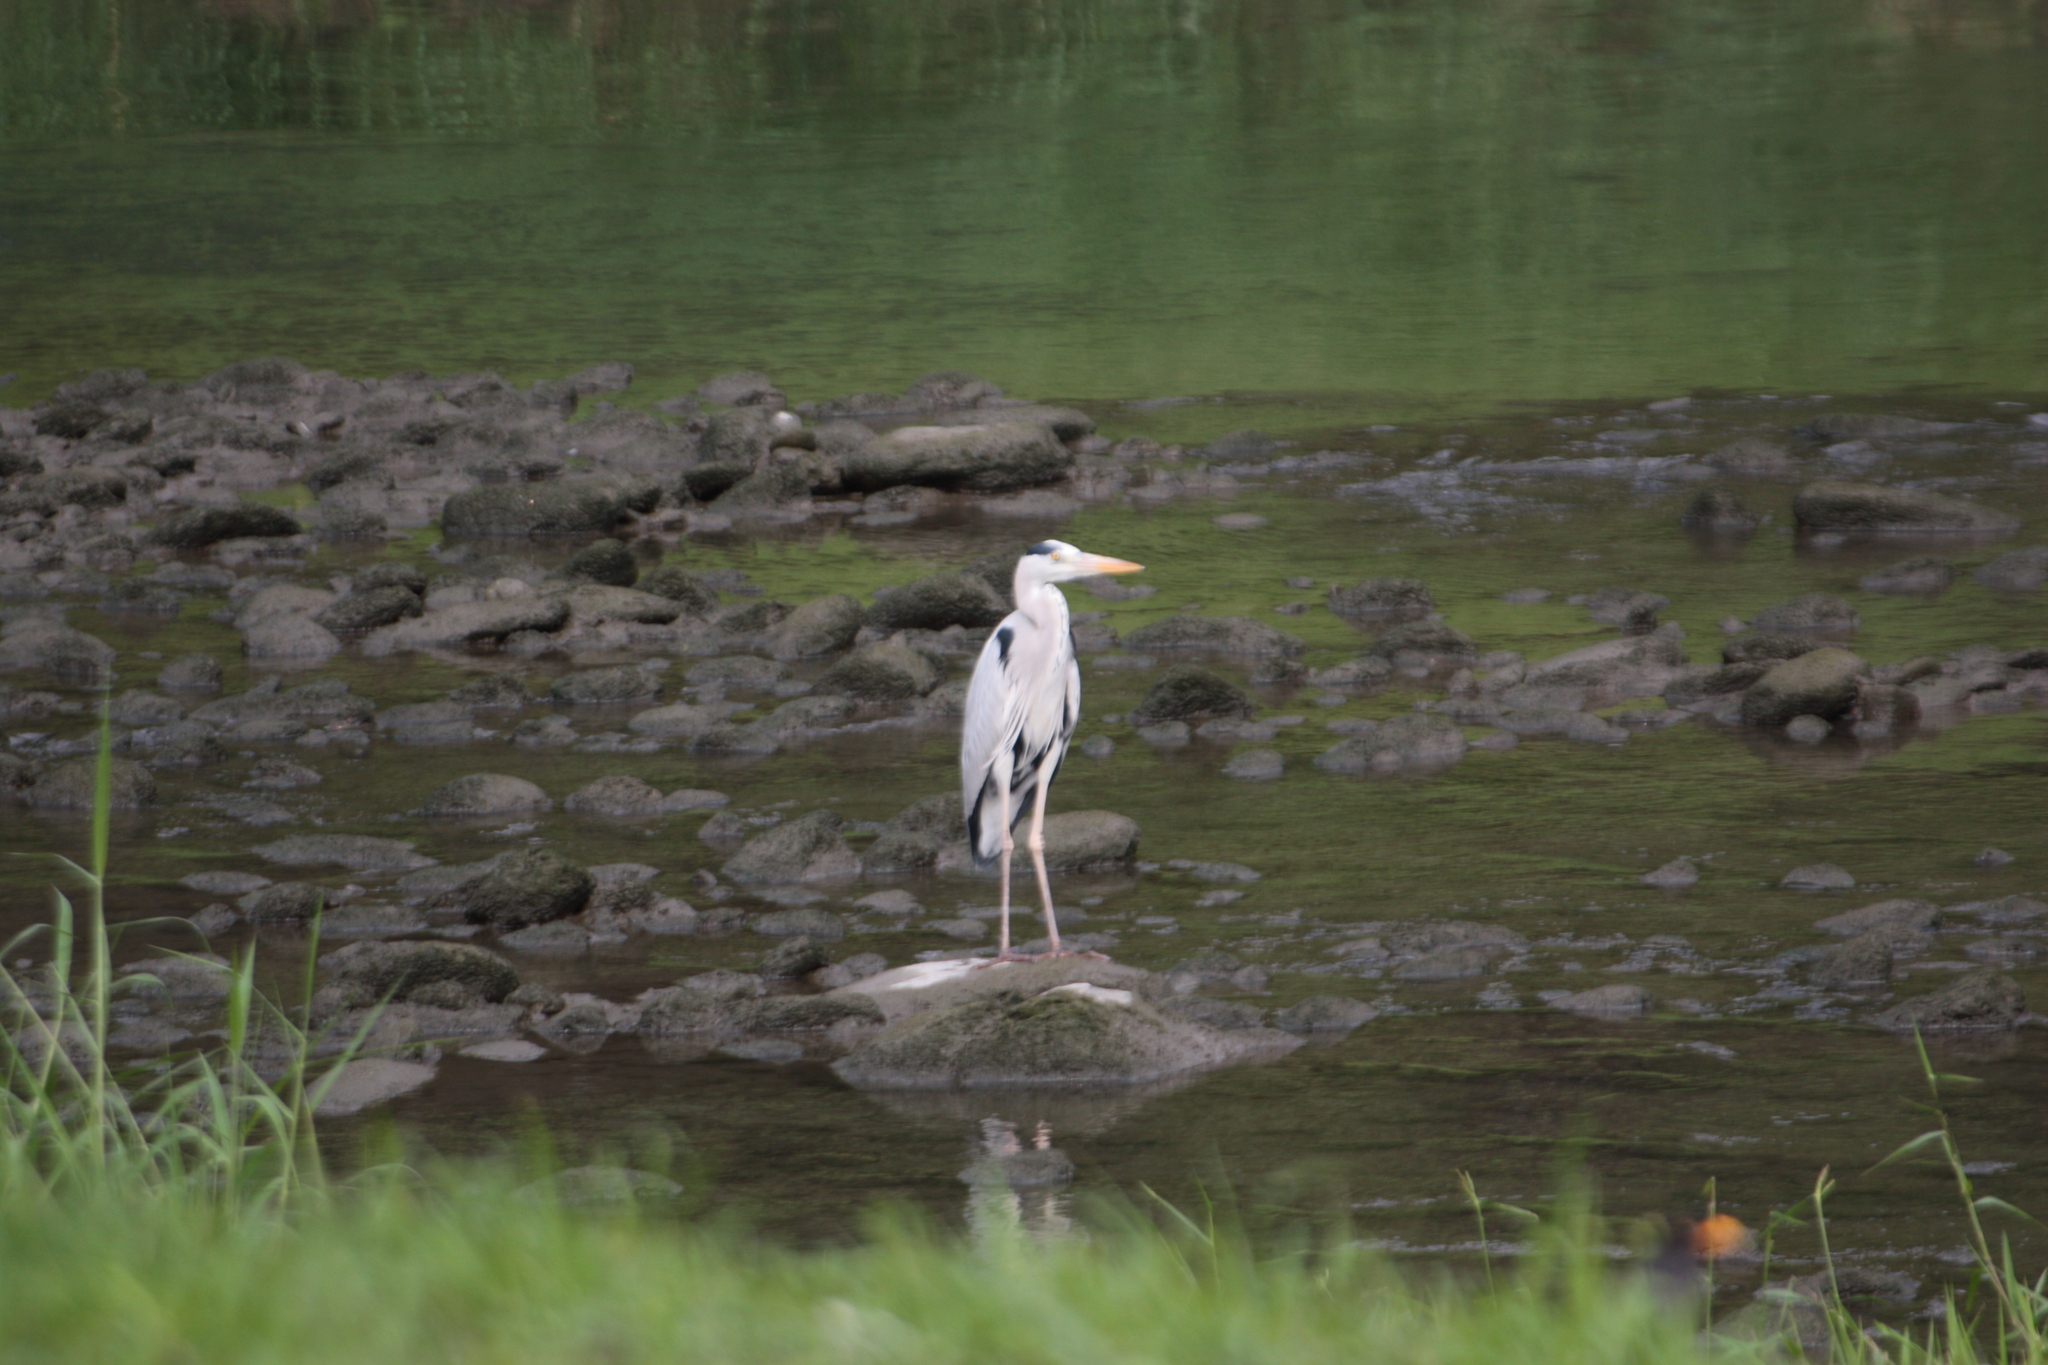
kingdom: Animalia
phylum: Chordata
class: Aves
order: Pelecaniformes
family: Ardeidae
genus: Ardea
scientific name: Ardea cinerea
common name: Grey heron
